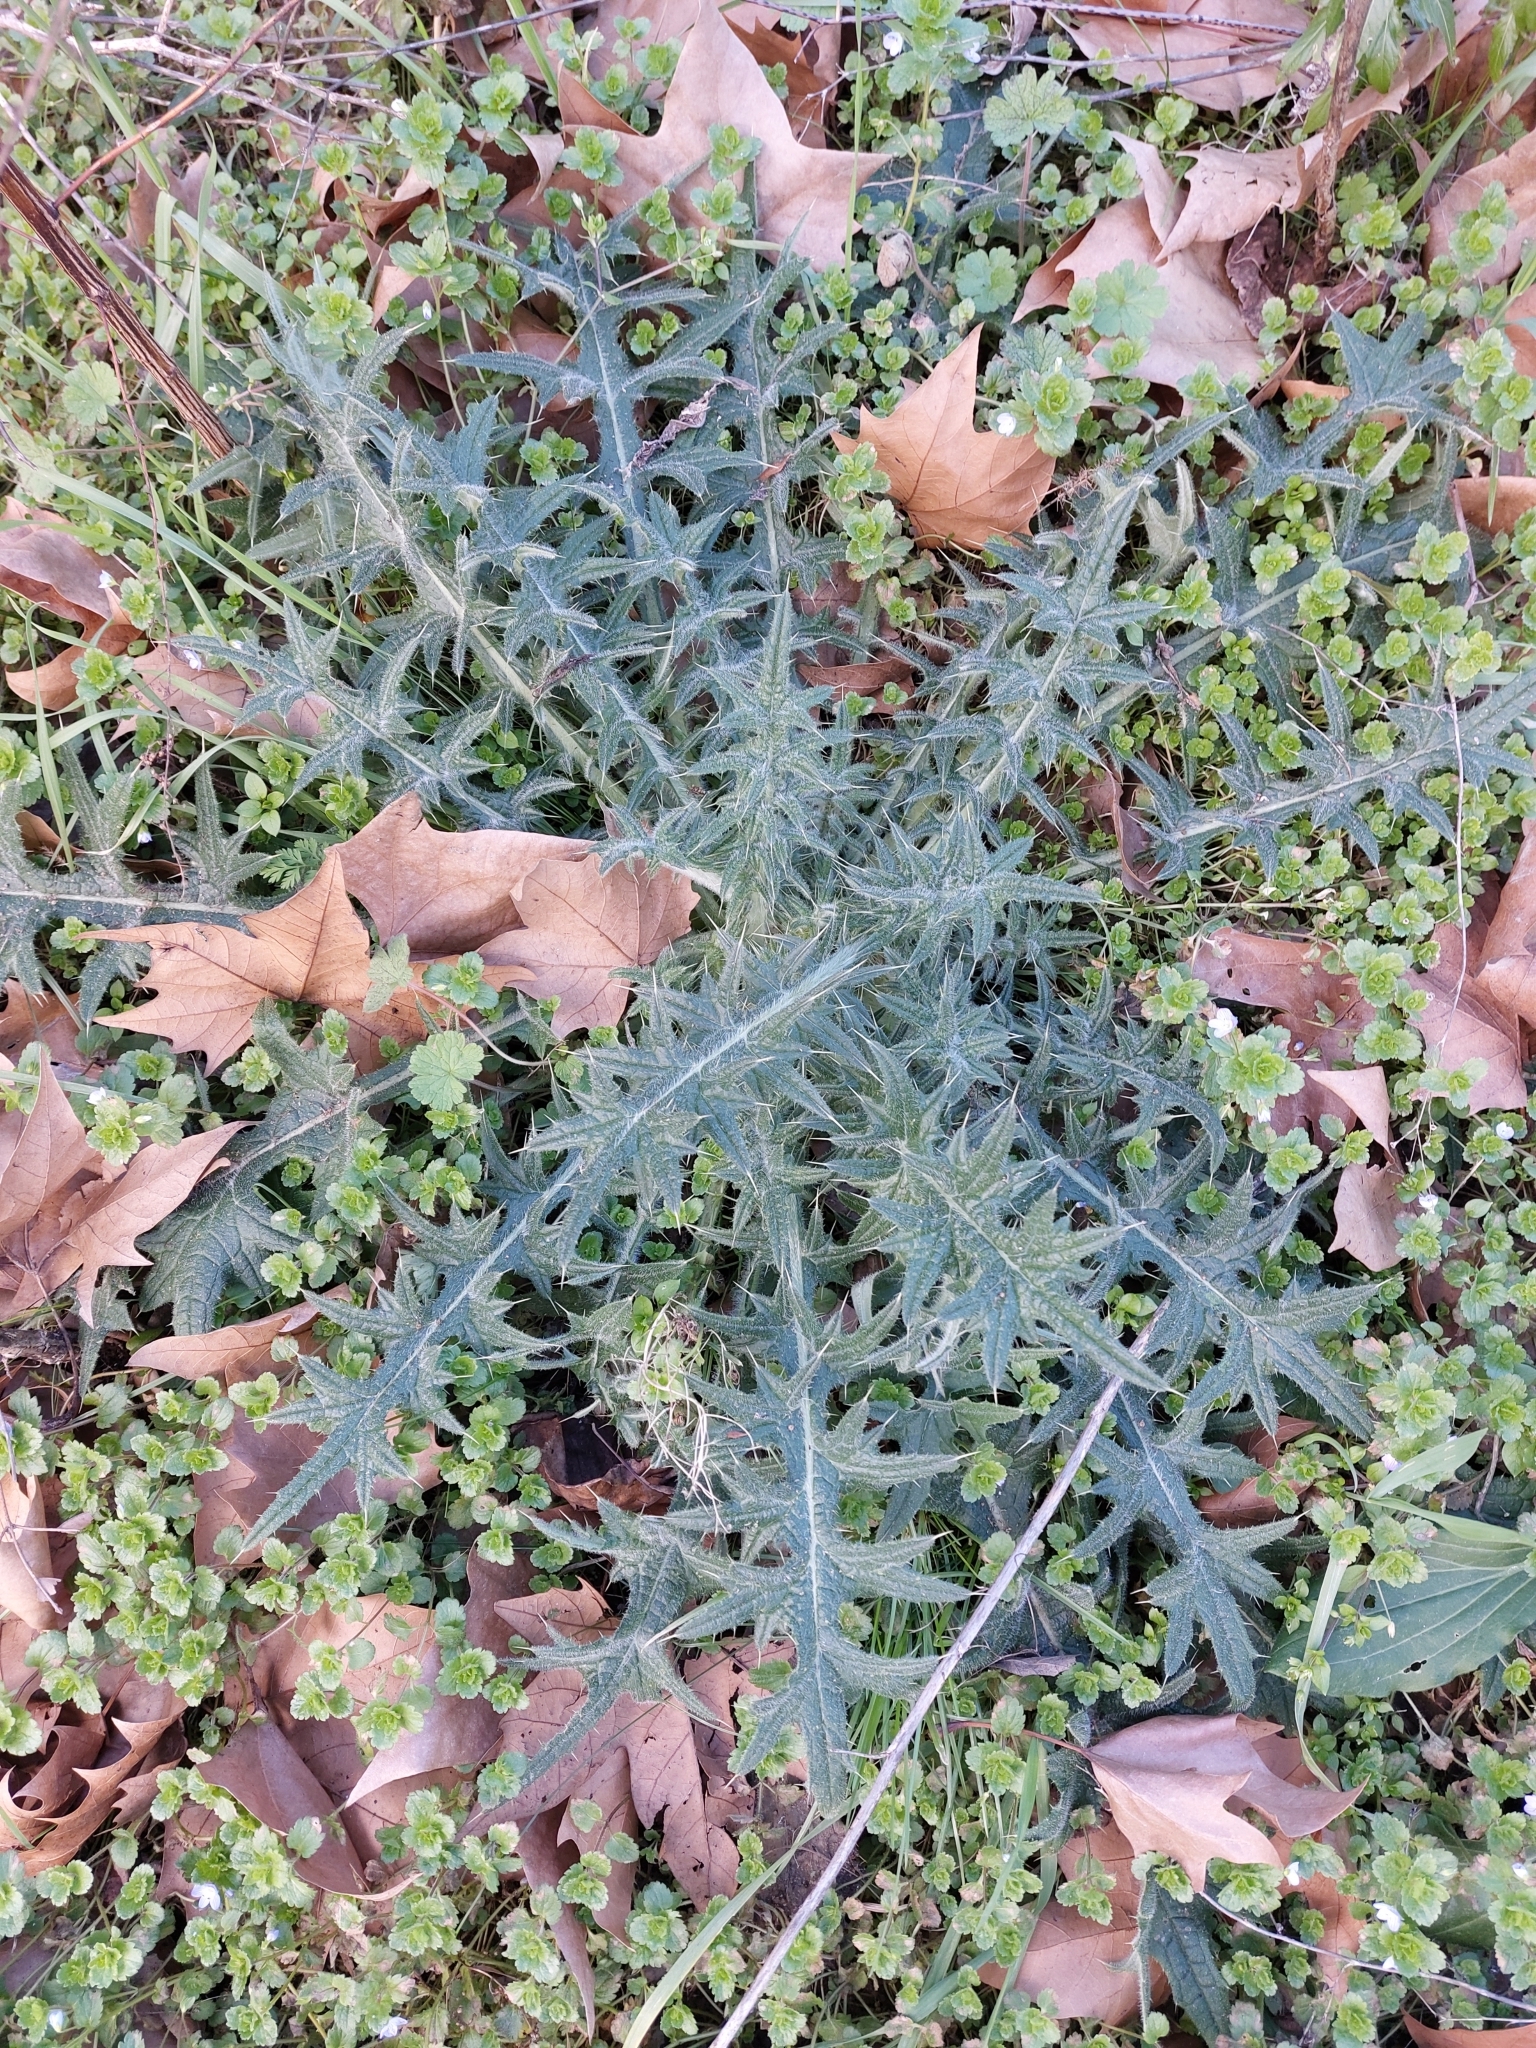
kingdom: Plantae
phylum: Tracheophyta
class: Magnoliopsida
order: Asterales
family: Asteraceae
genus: Cirsium
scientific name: Cirsium vulgare
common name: Bull thistle
